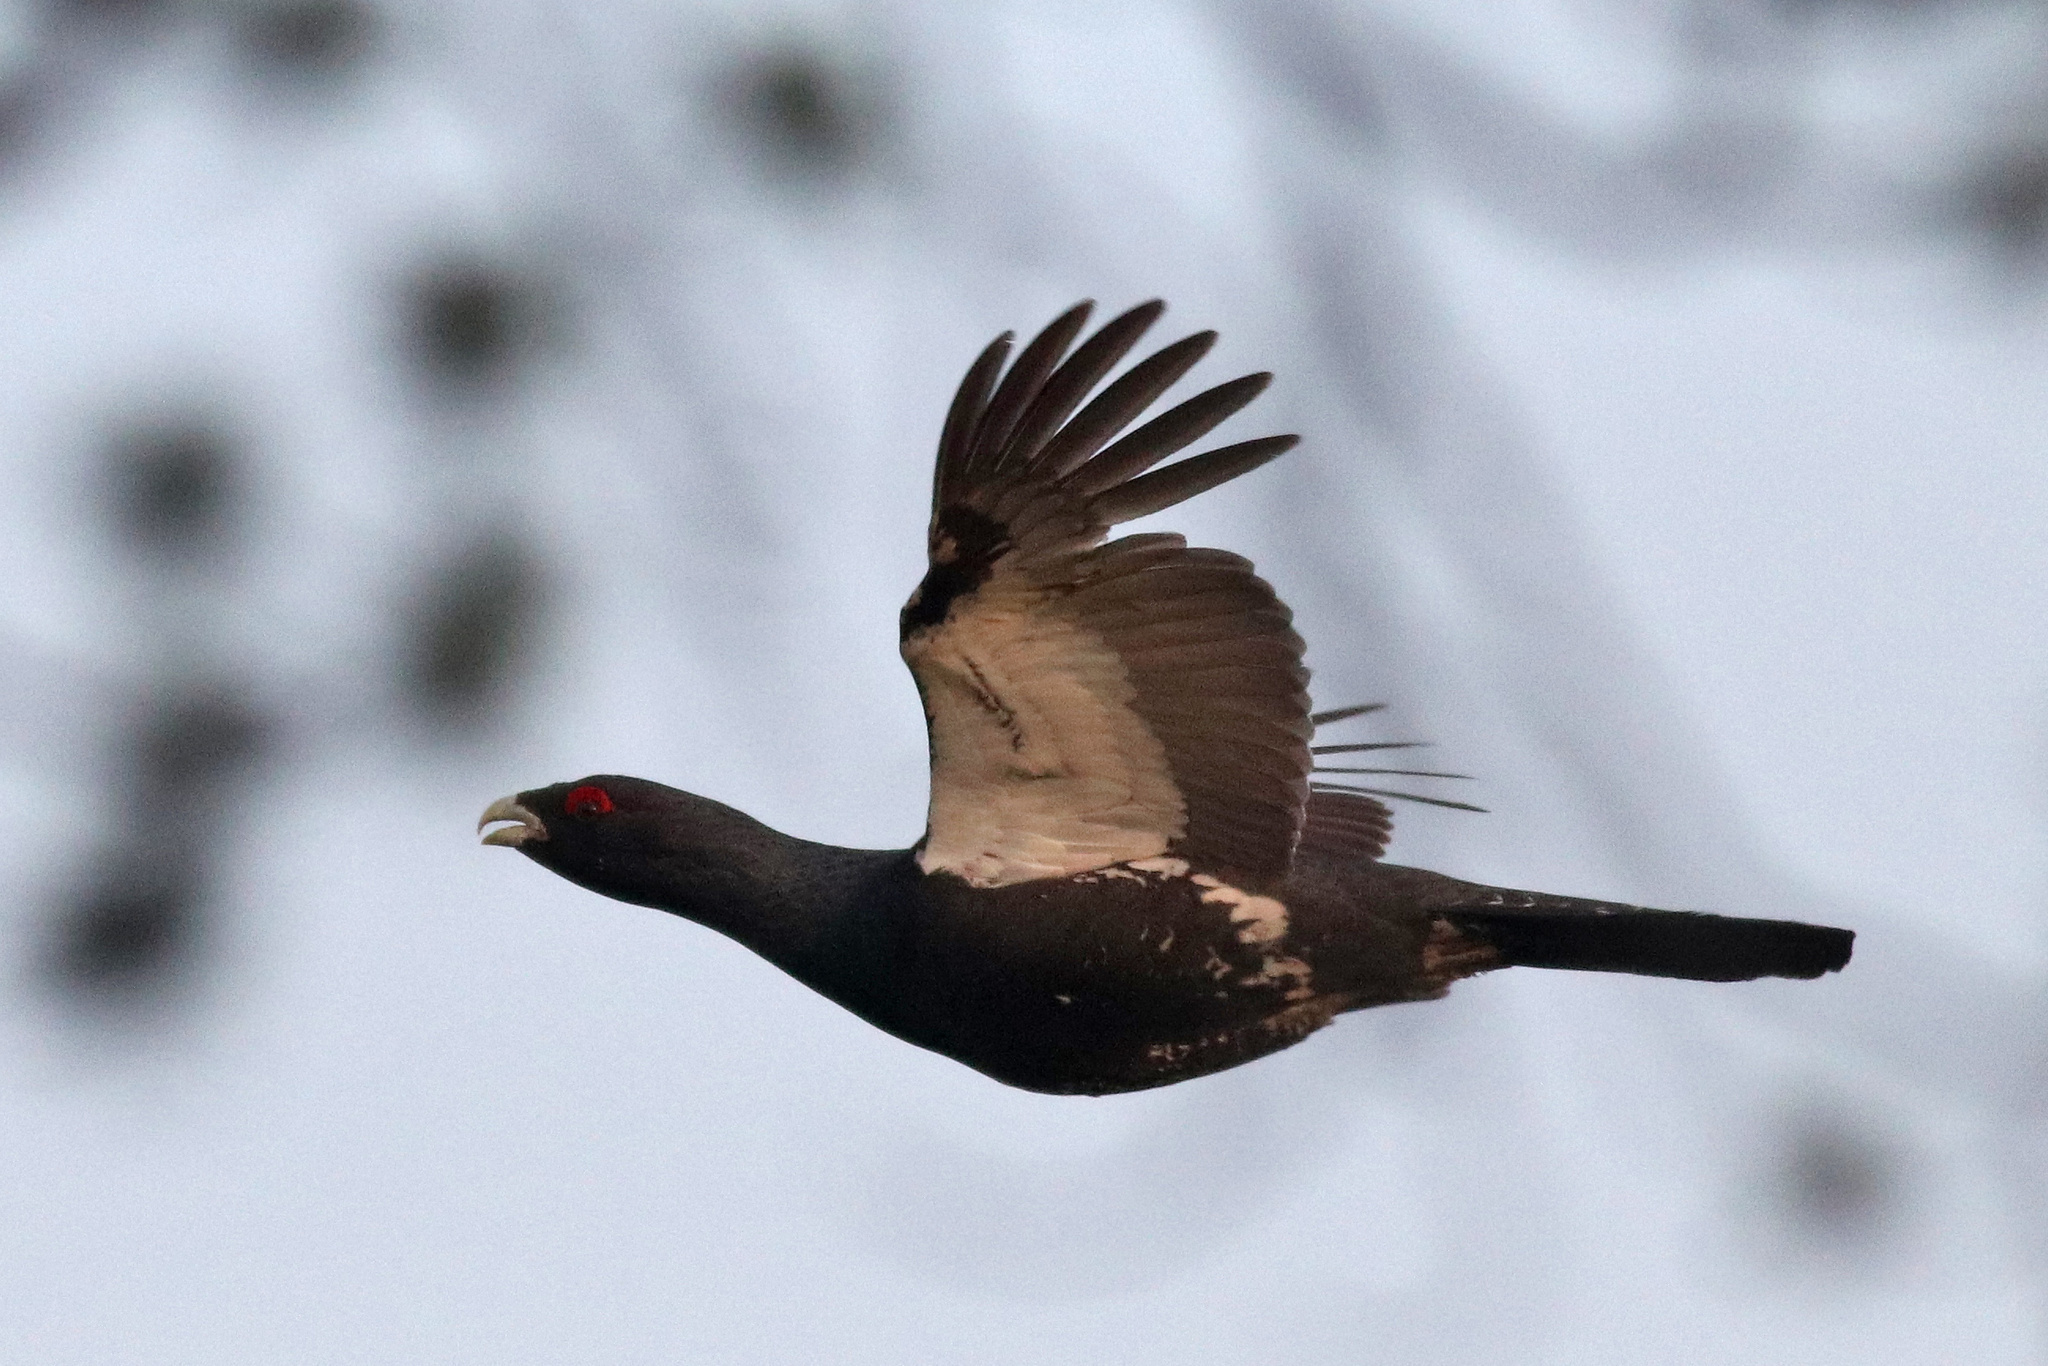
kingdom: Animalia
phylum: Chordata
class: Aves
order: Galliformes
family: Phasianidae
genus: Tetrao
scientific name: Tetrao urogallus
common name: Western capercaillie
